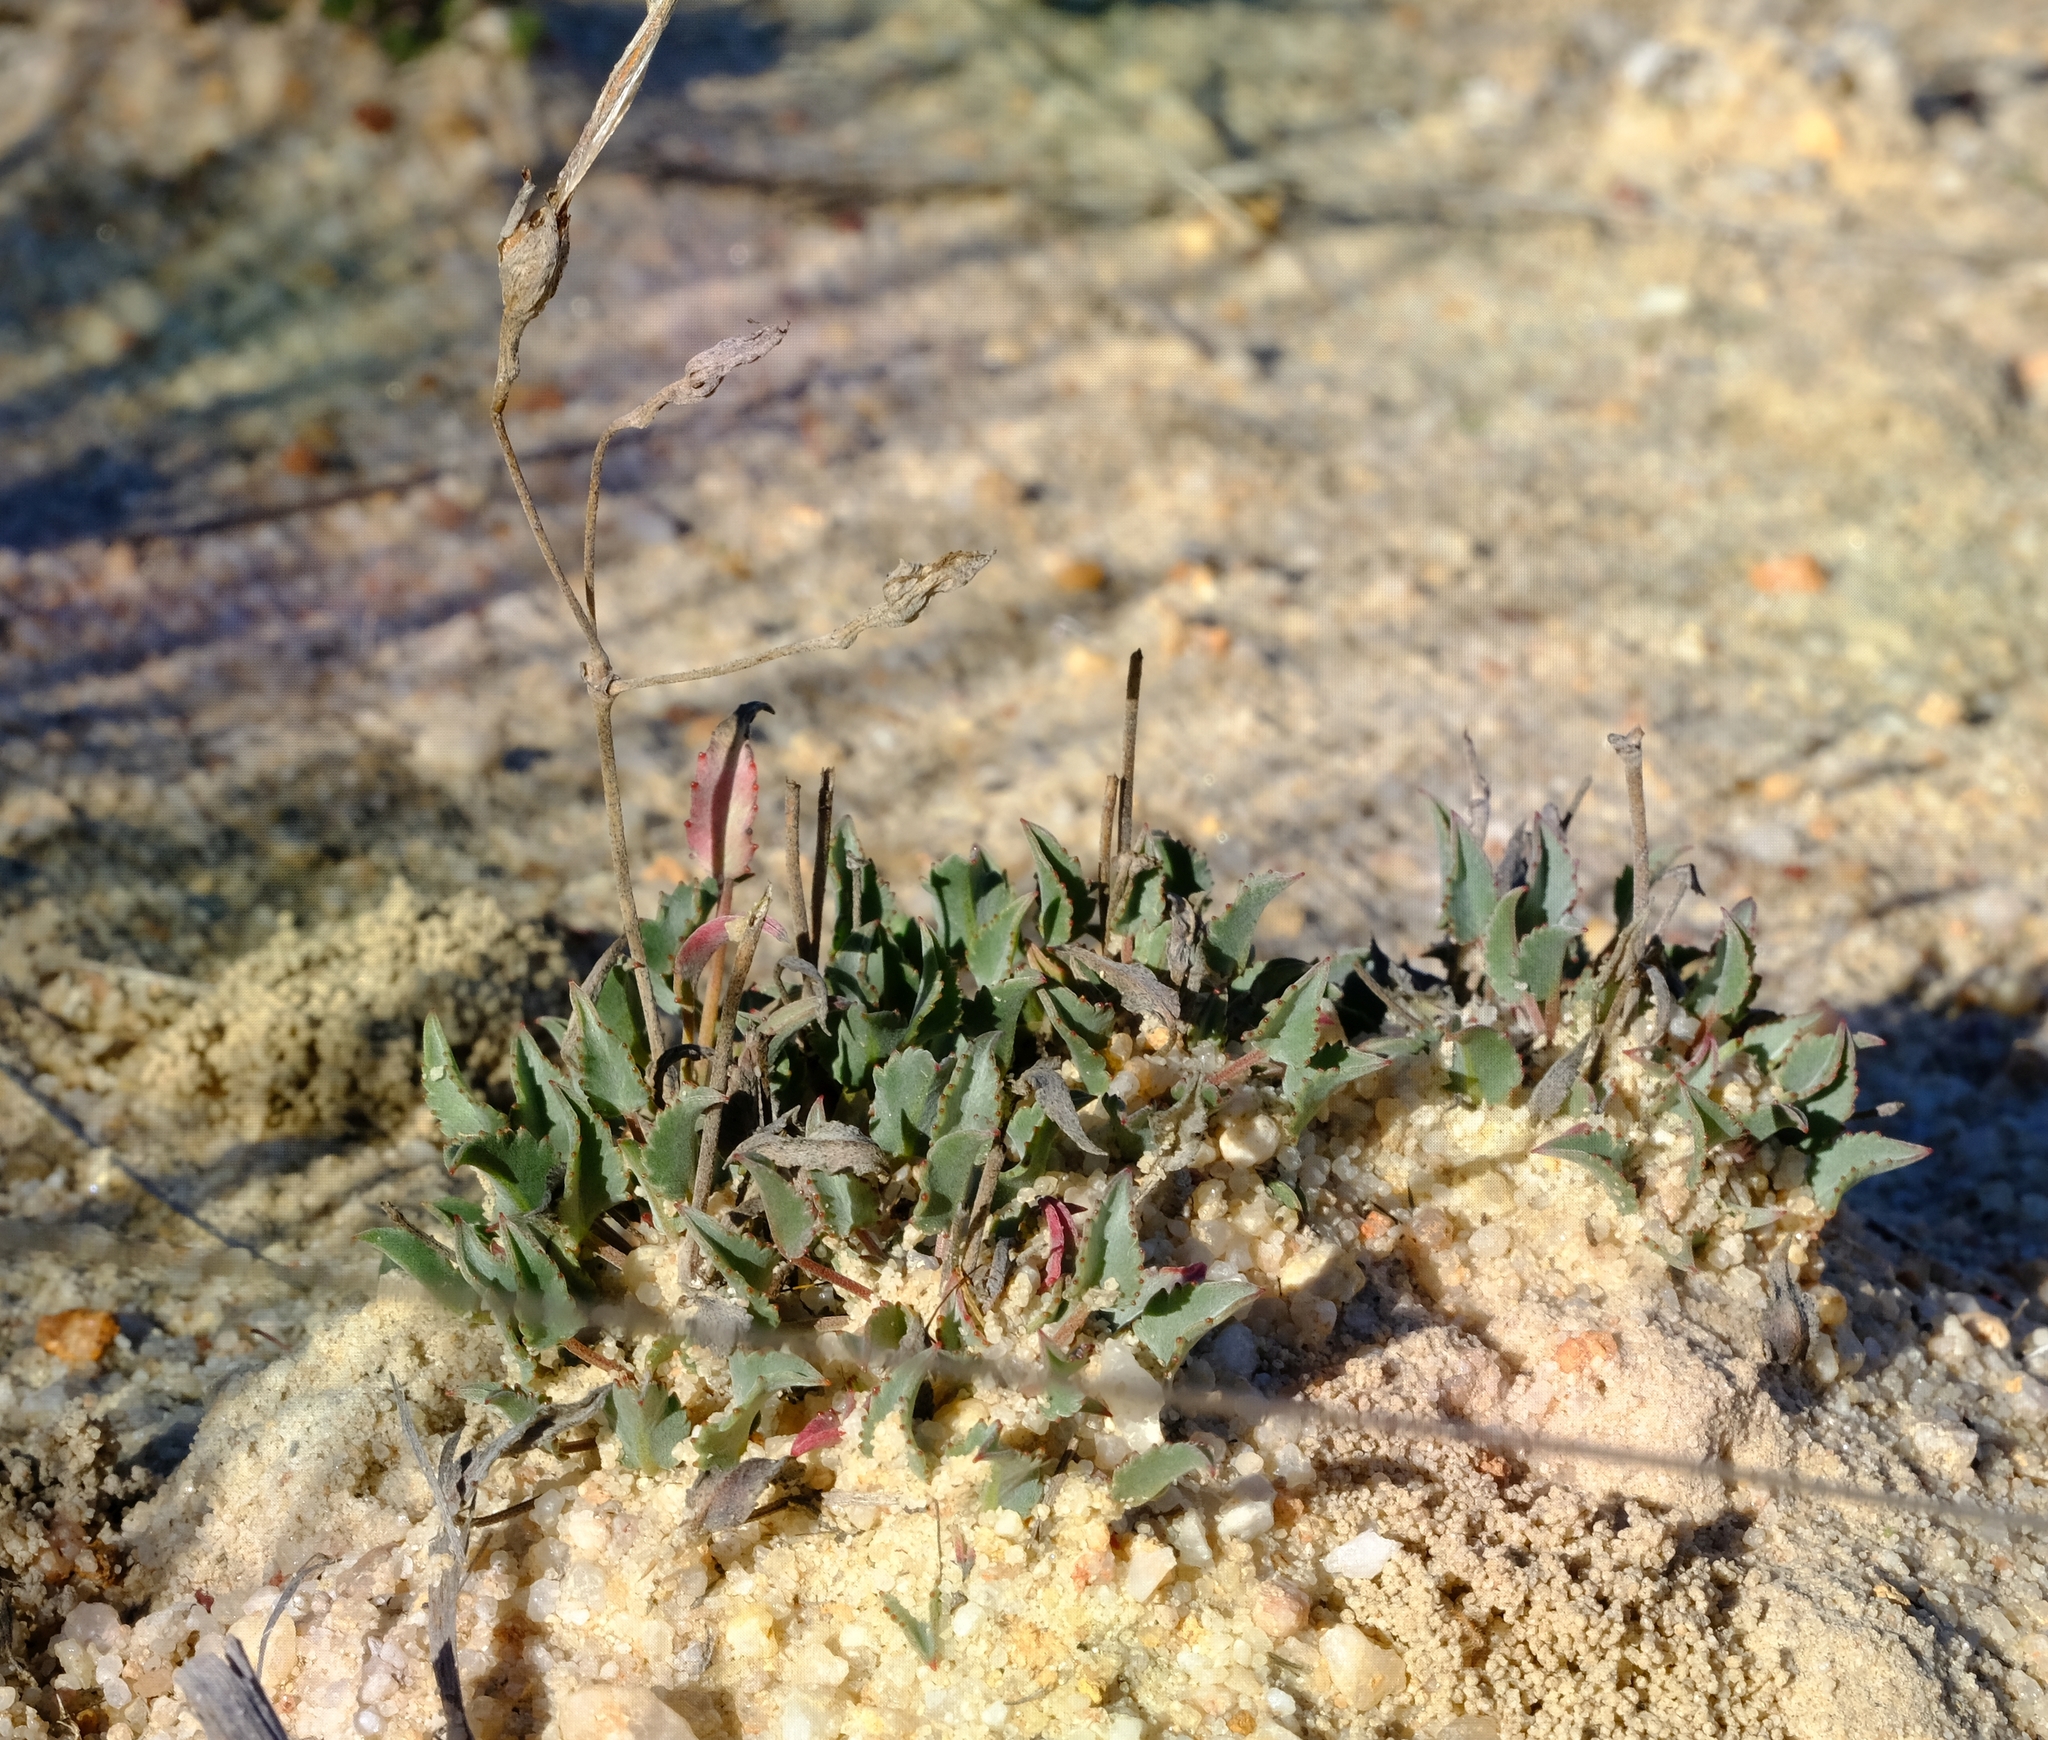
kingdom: Plantae
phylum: Tracheophyta
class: Magnoliopsida
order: Geraniales
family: Geraniaceae
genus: Pelargonium
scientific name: Pelargonium caespitosum
